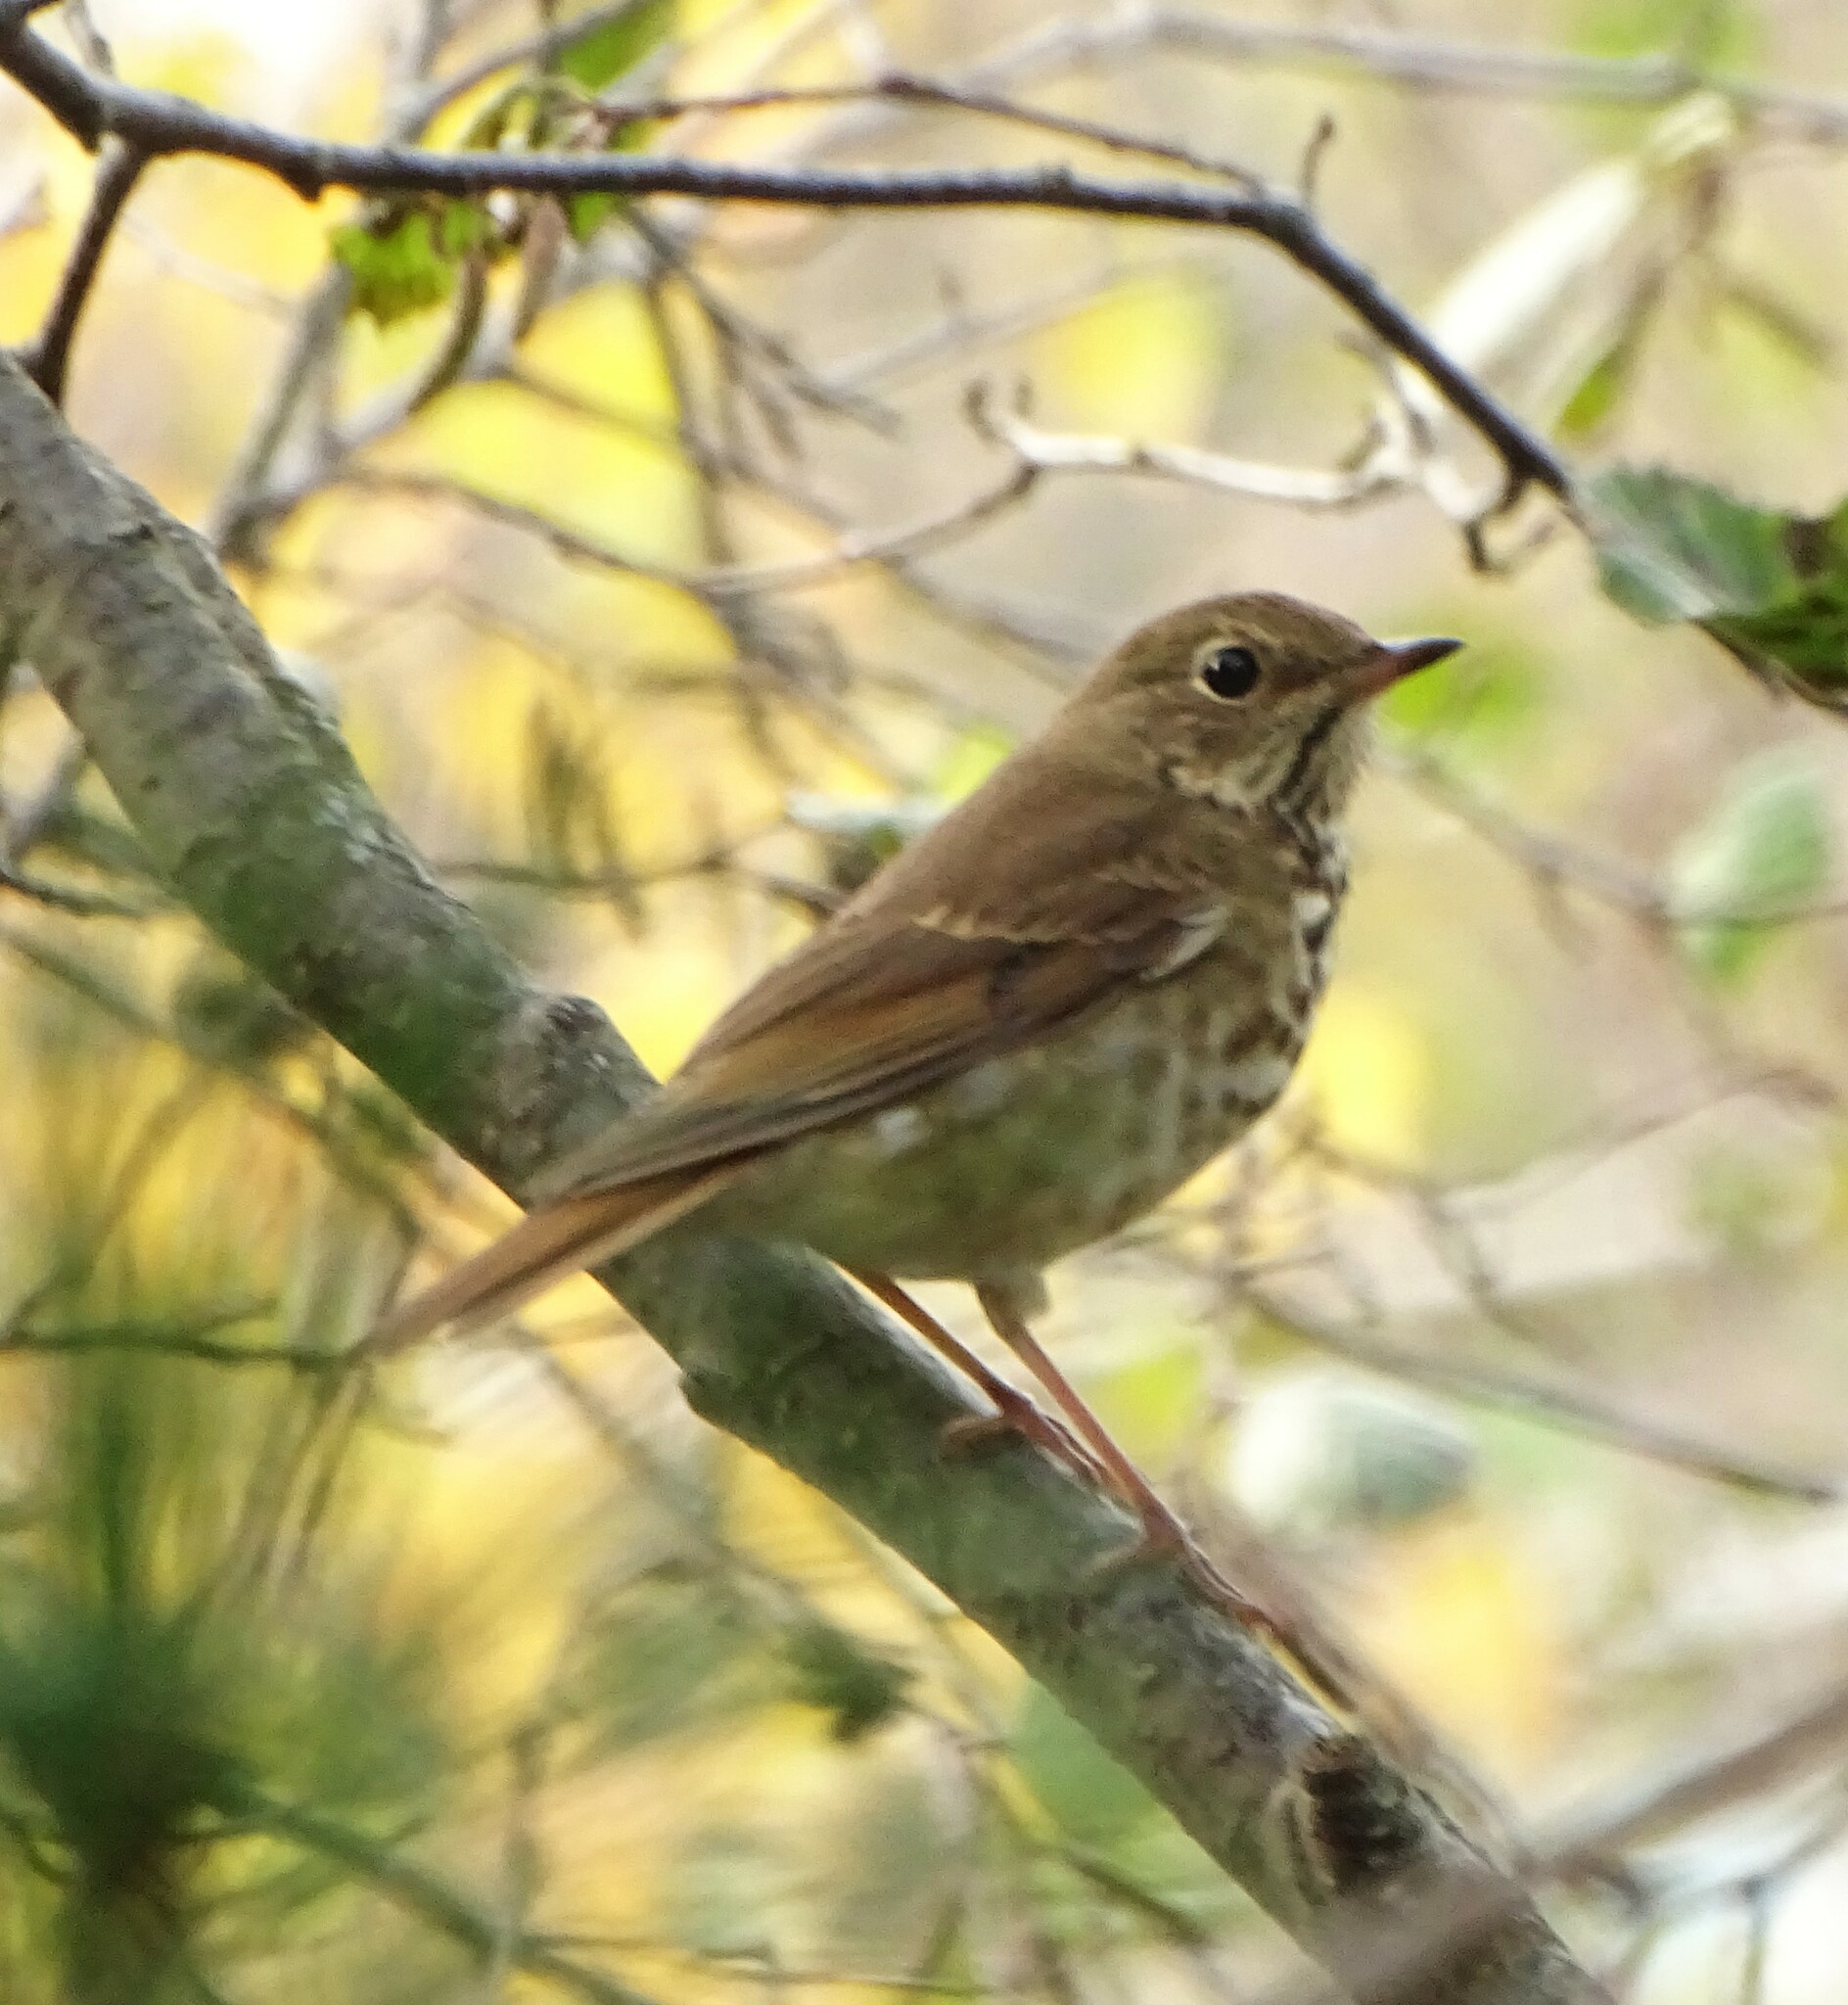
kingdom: Animalia
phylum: Chordata
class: Aves
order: Passeriformes
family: Turdidae
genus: Catharus
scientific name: Catharus guttatus
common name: Hermit thrush
